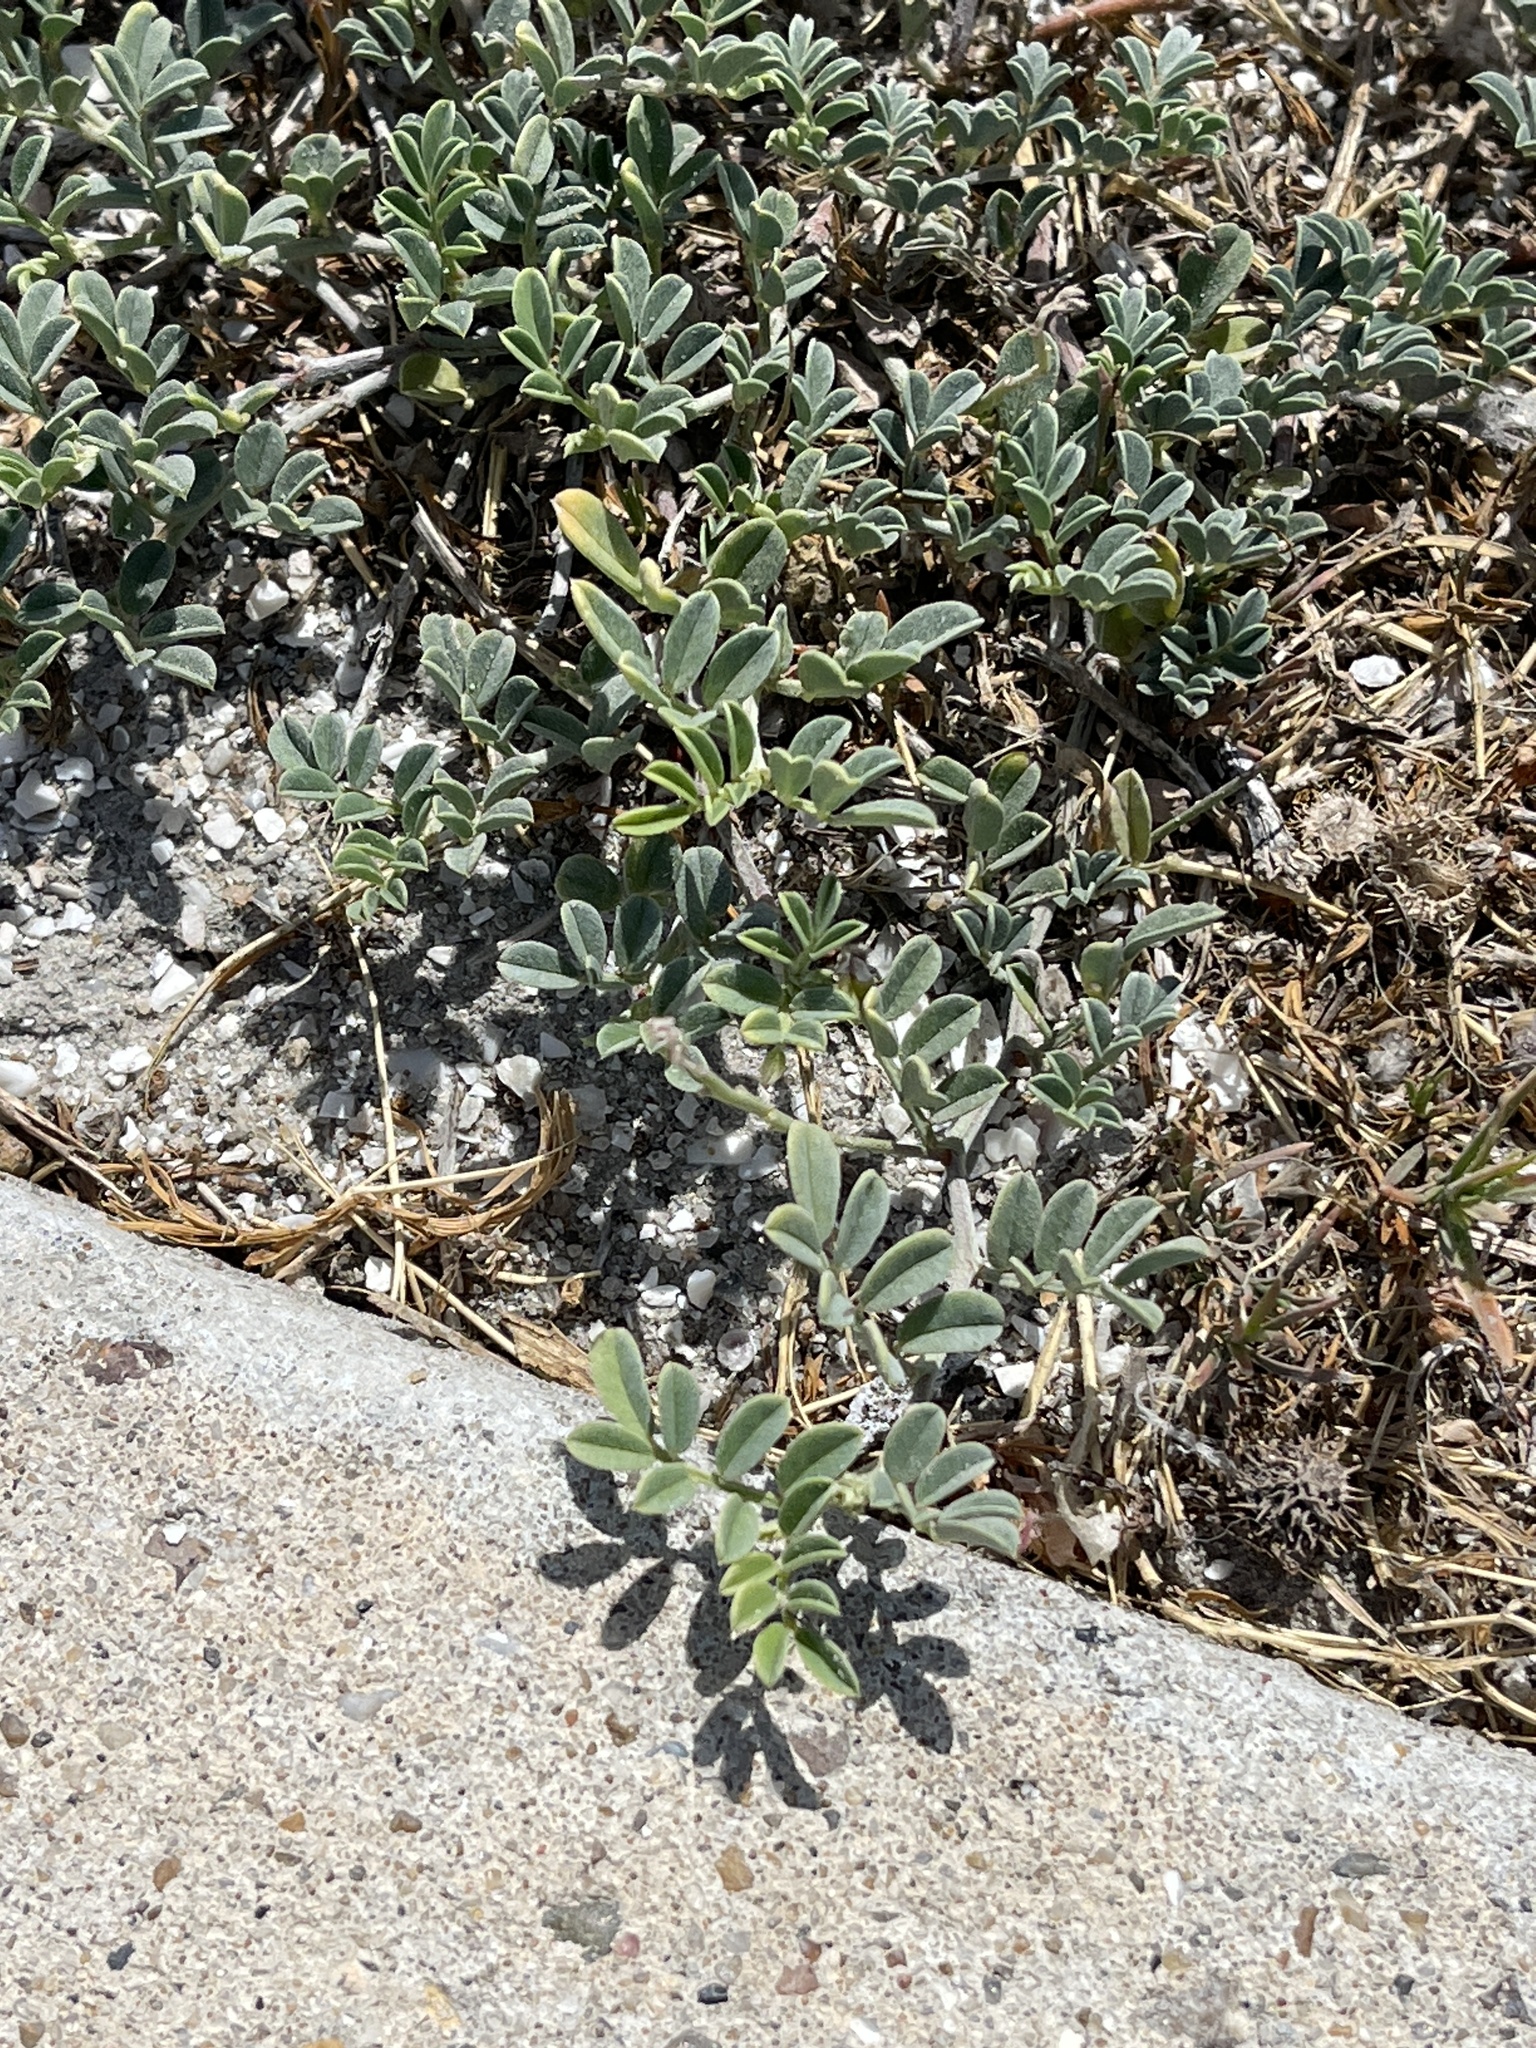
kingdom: Plantae
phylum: Tracheophyta
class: Magnoliopsida
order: Fabales
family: Fabaceae
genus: Indigofera
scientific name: Indigofera miniata
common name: Coast indigo
